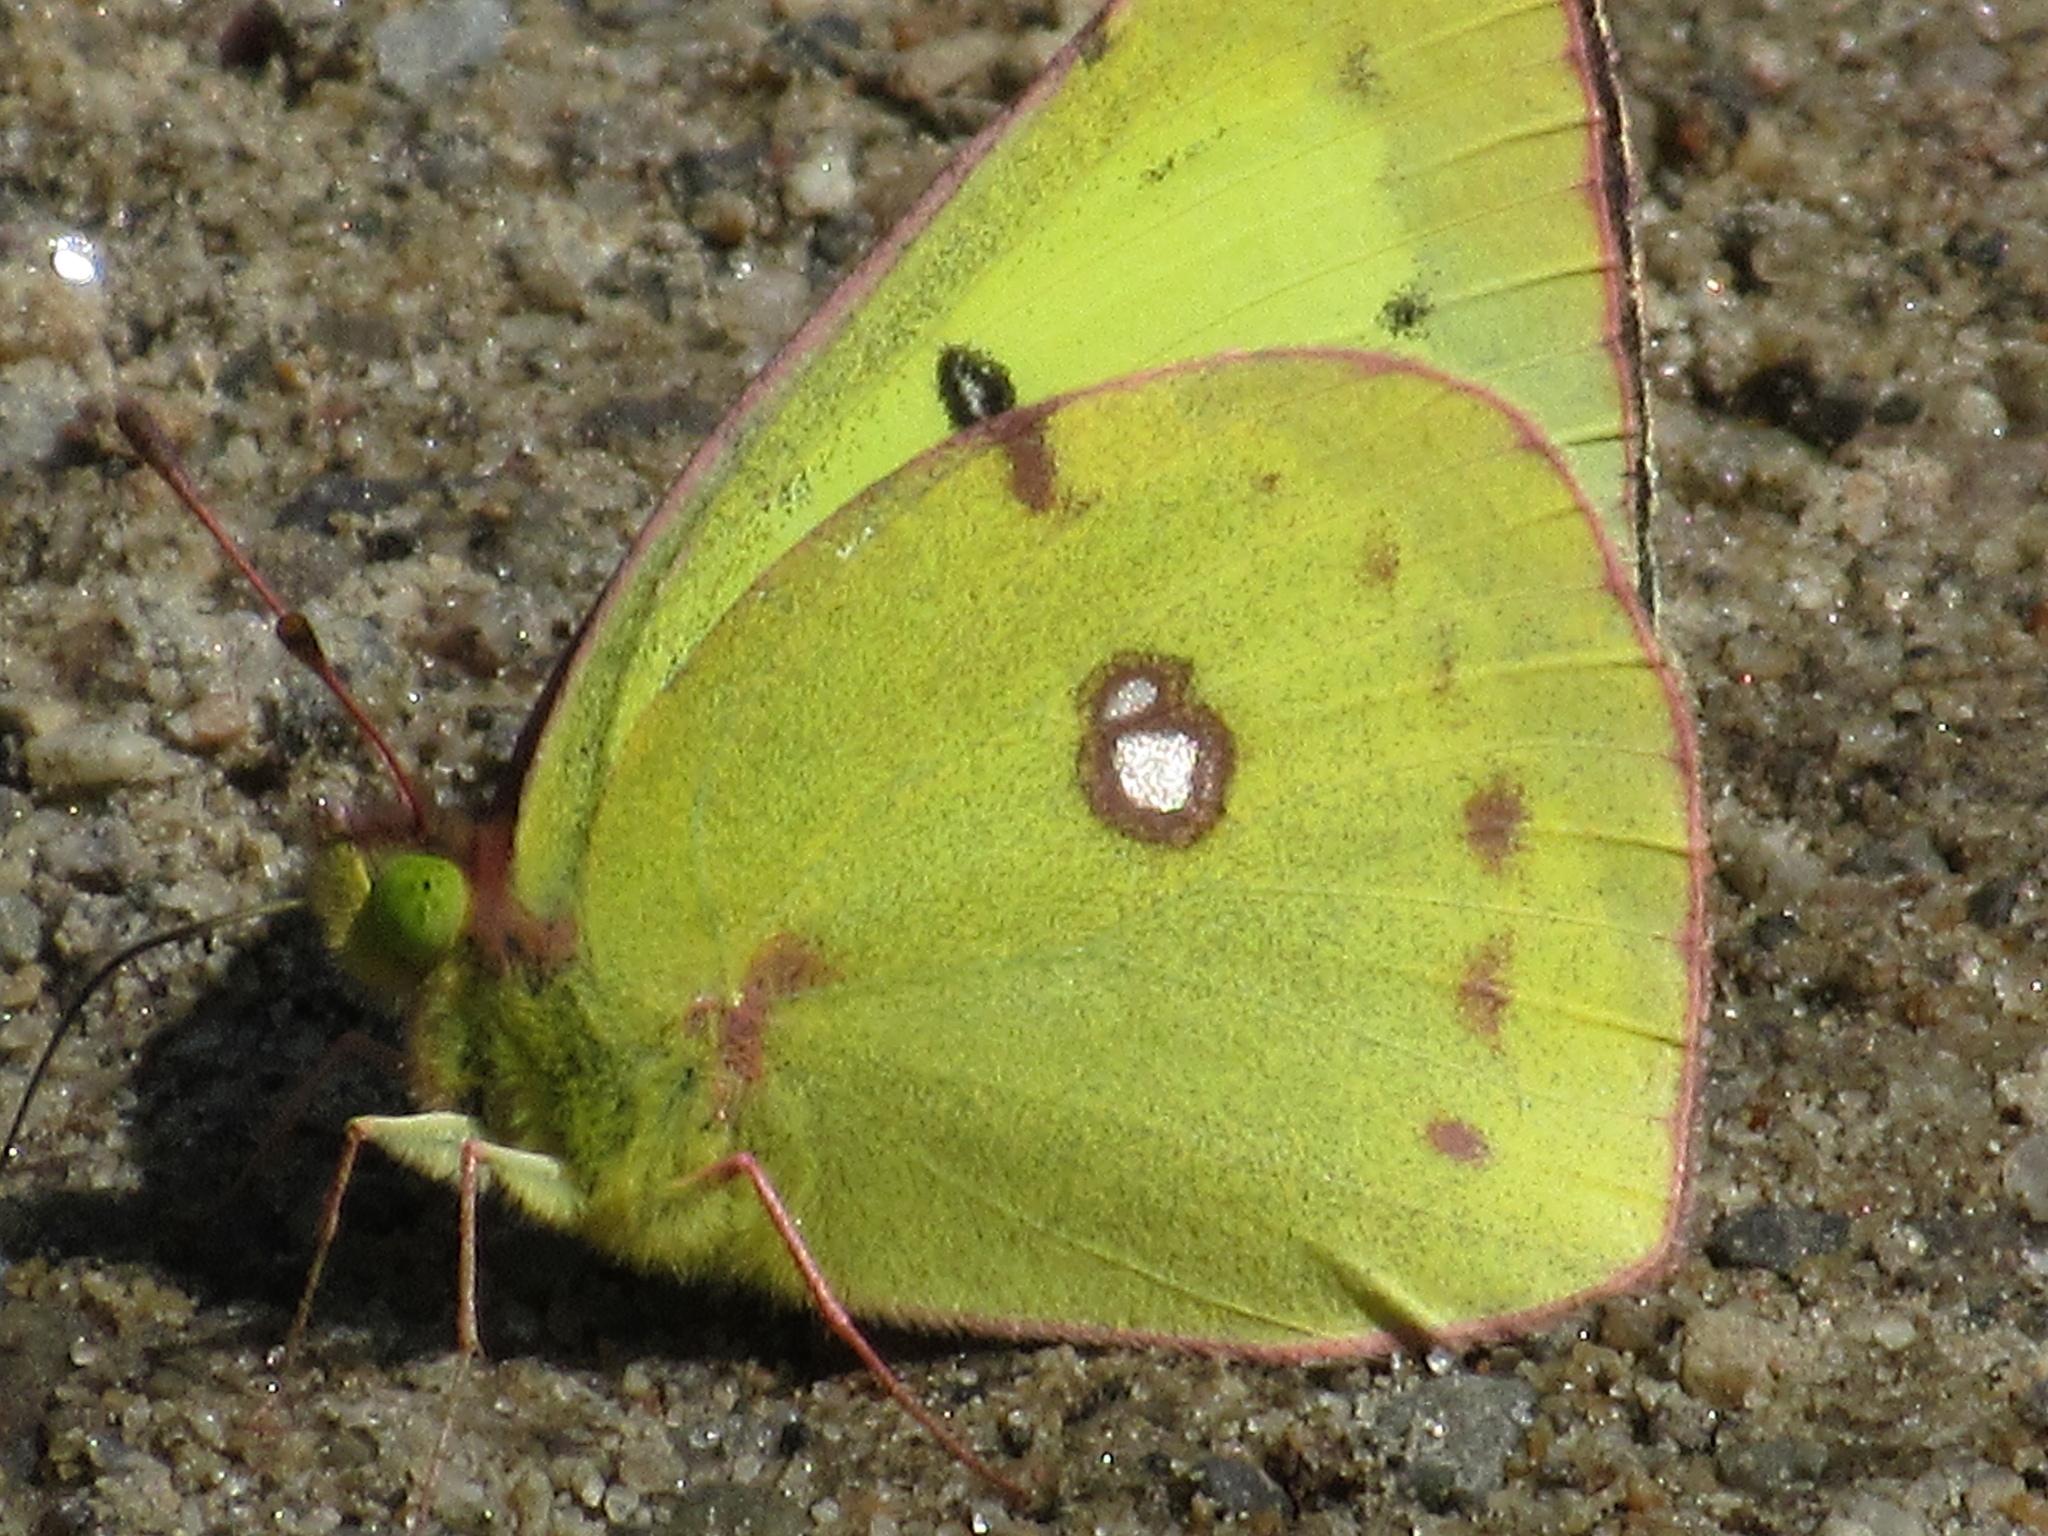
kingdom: Animalia
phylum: Arthropoda
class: Insecta
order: Lepidoptera
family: Pieridae
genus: Colias
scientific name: Colias philodice
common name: Clouded sulphur
